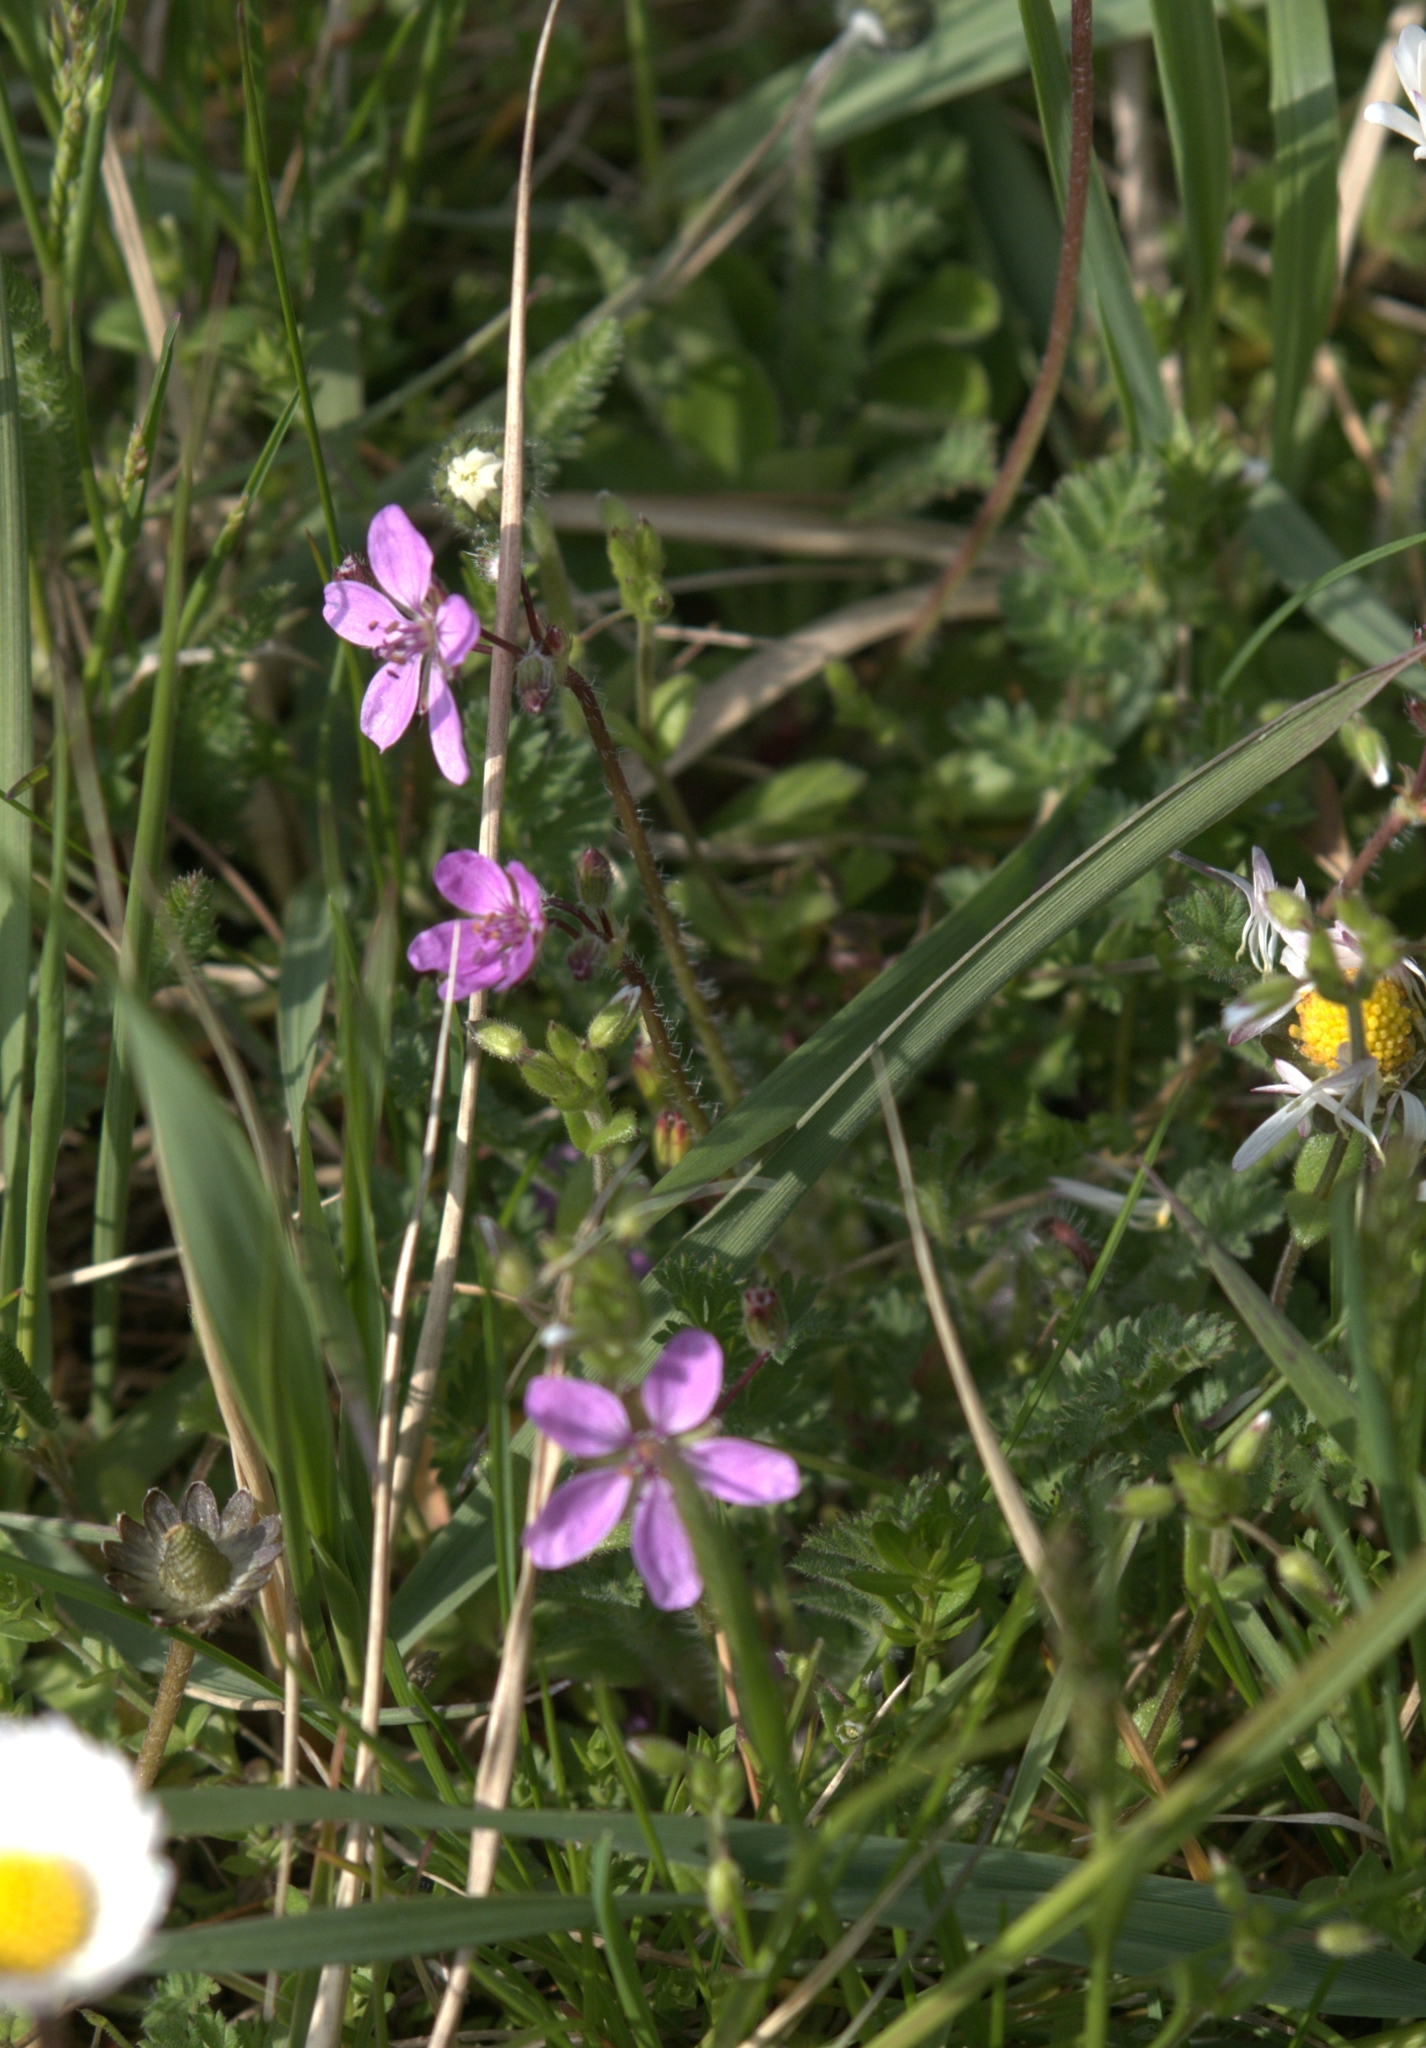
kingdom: Plantae
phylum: Tracheophyta
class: Magnoliopsida
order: Geraniales
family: Geraniaceae
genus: Erodium
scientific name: Erodium cicutarium
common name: Common stork's-bill
